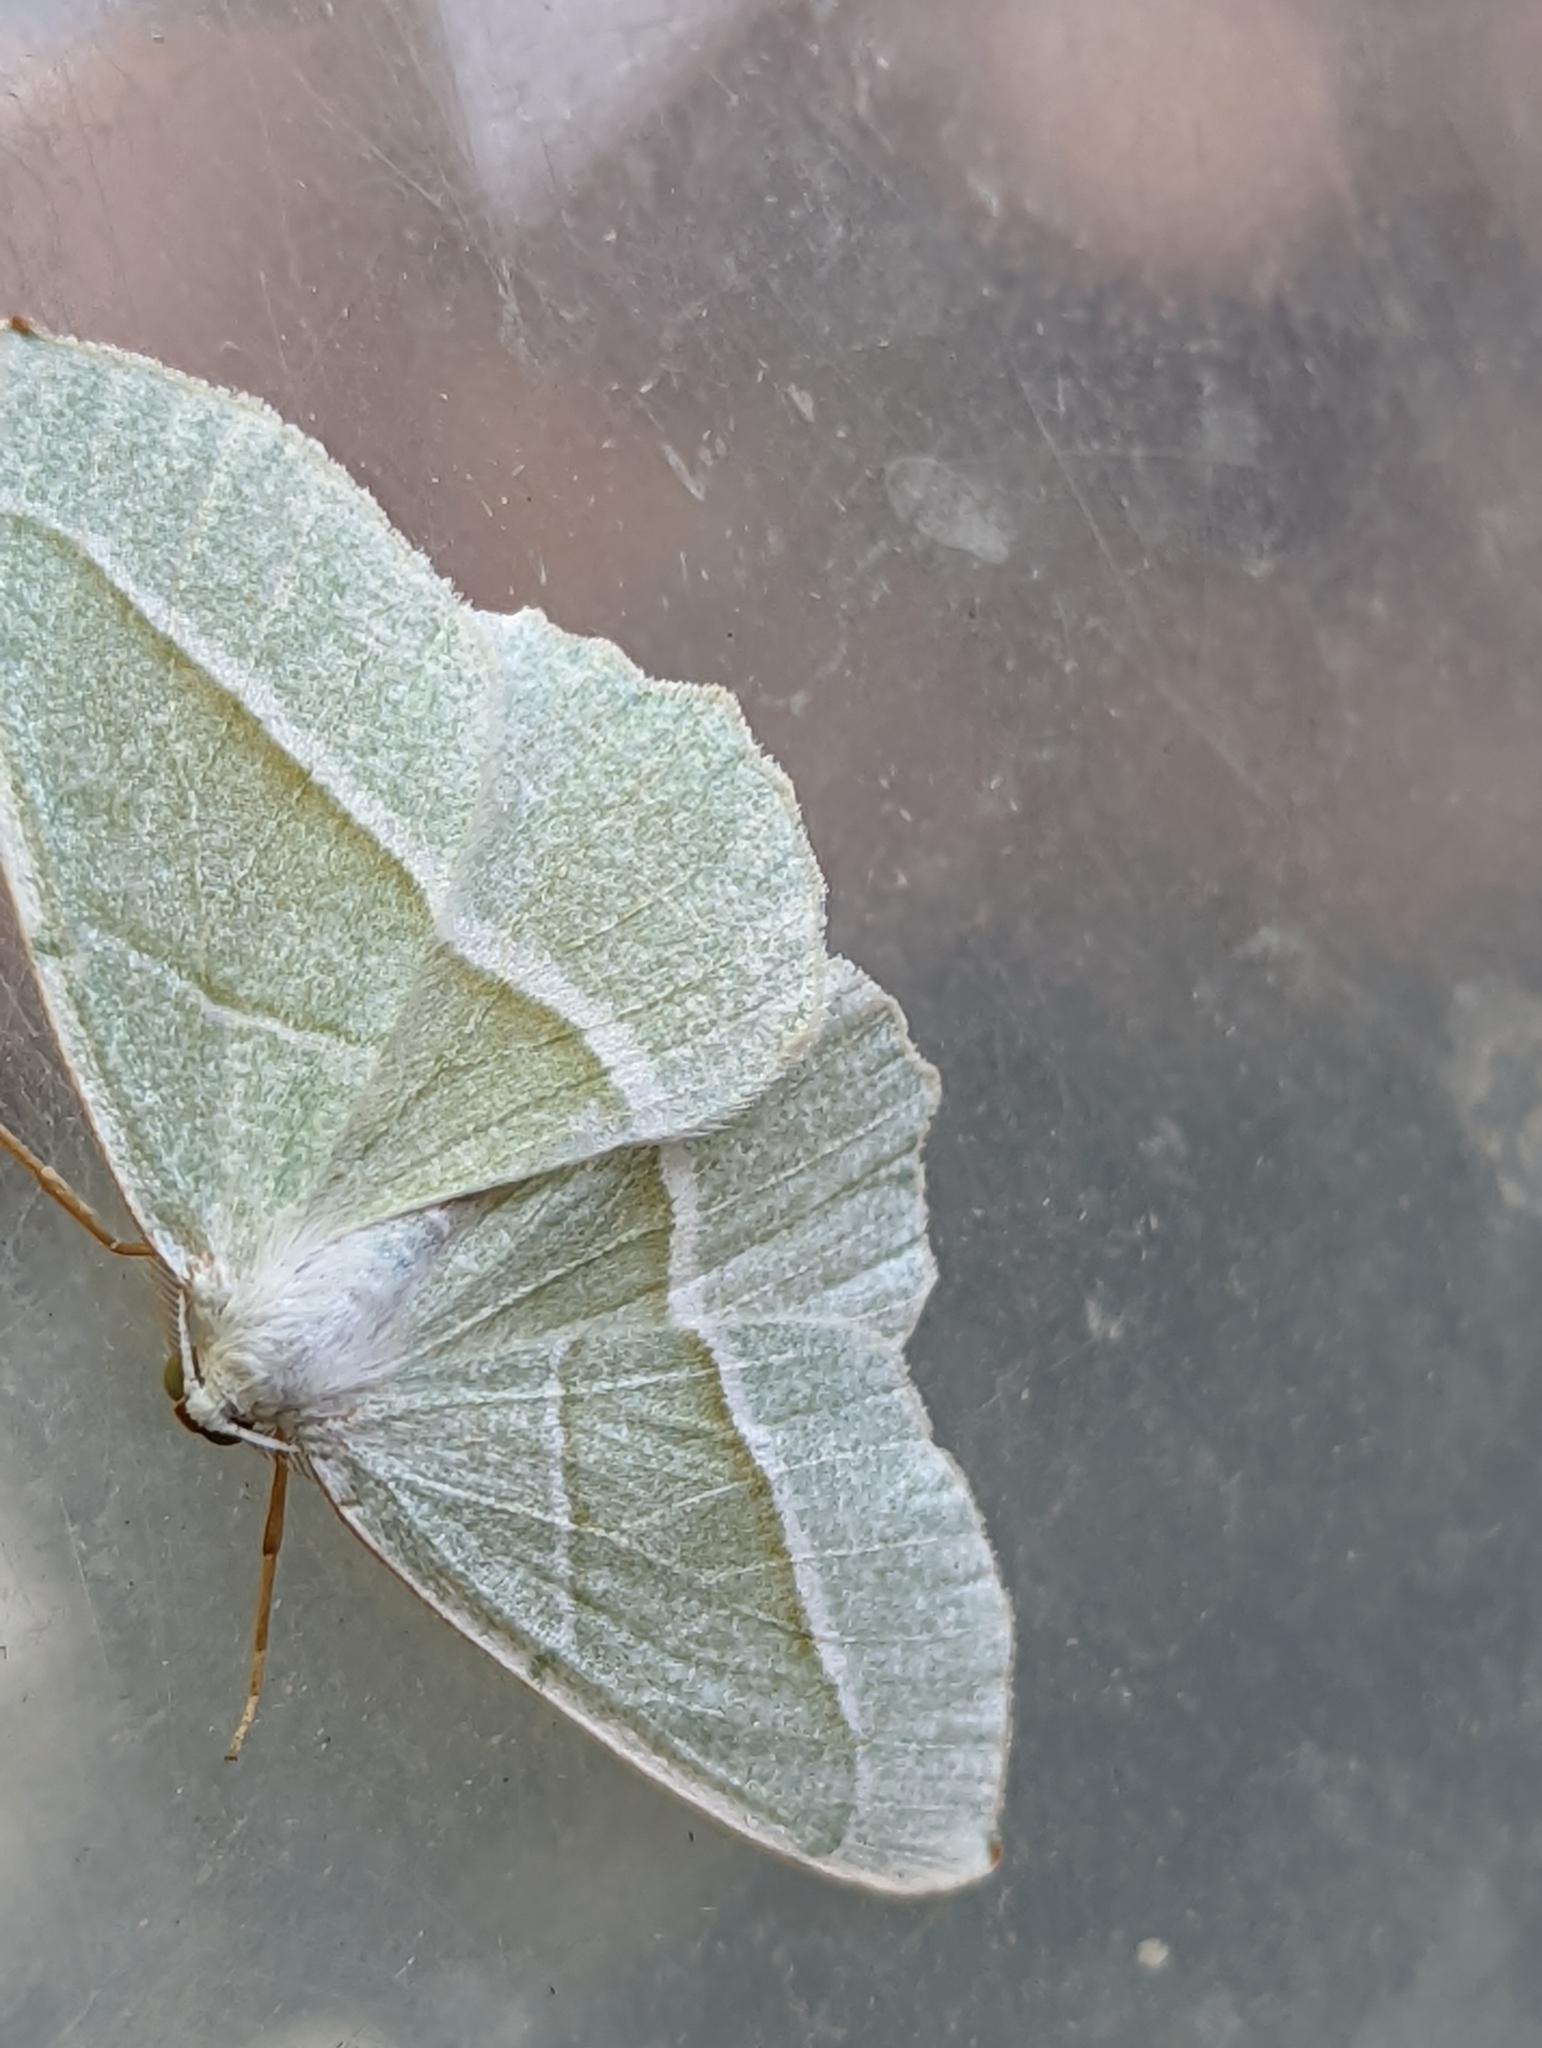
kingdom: Animalia
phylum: Arthropoda
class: Insecta
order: Lepidoptera
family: Geometridae
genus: Campaea
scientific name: Campaea margaritaria
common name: Light emerald
